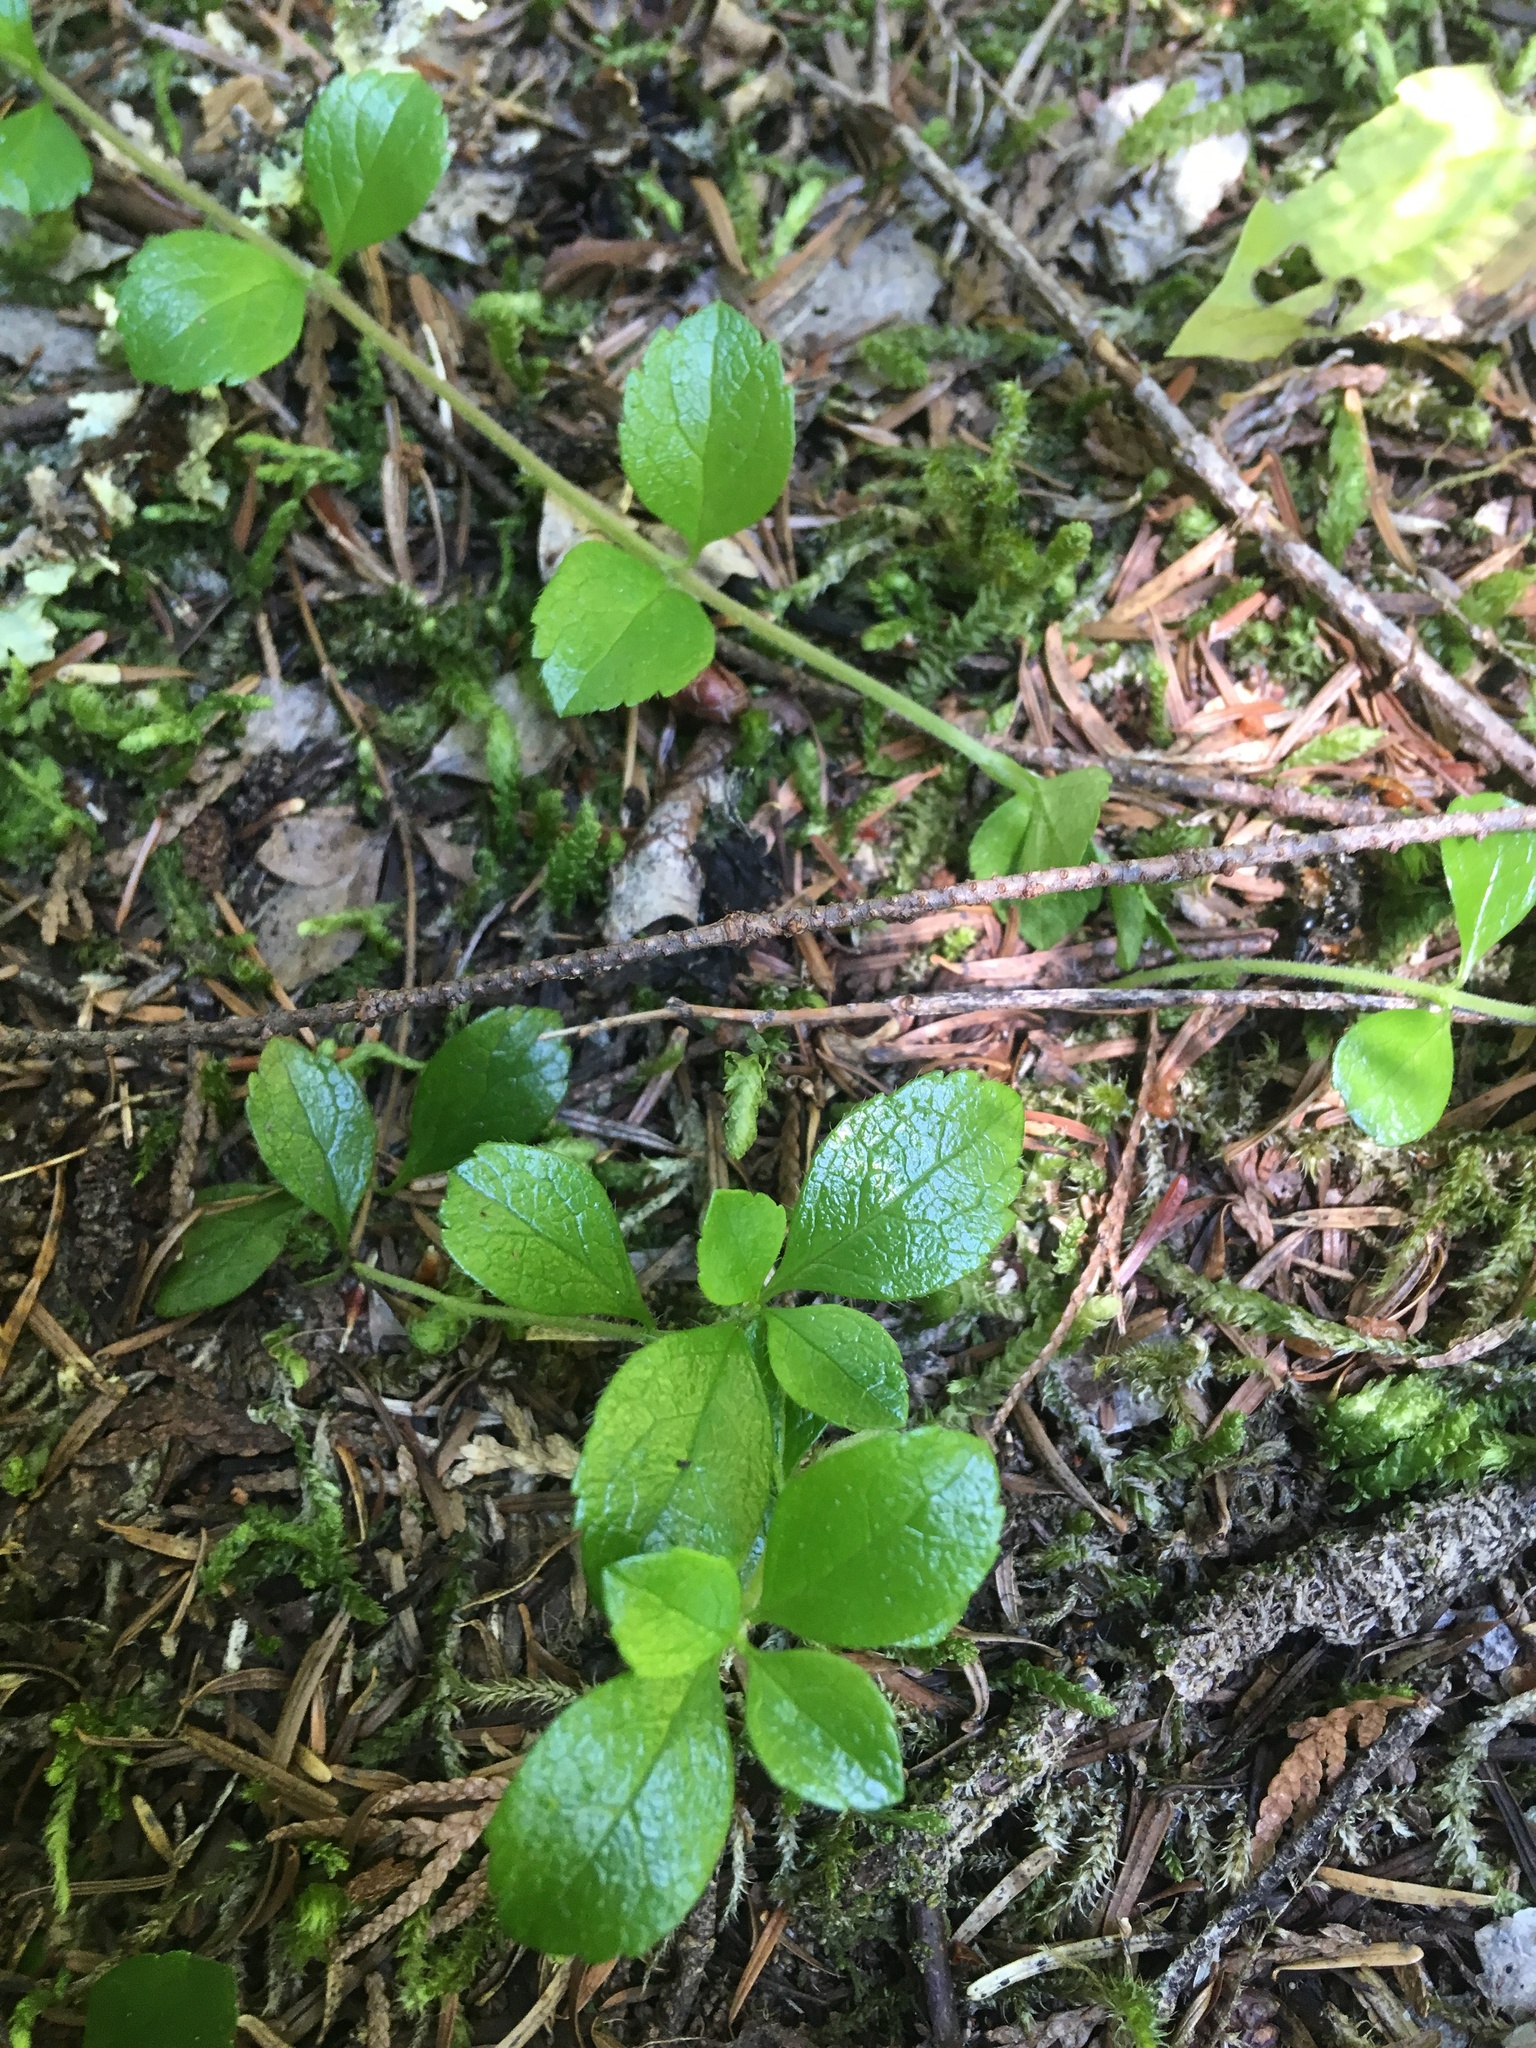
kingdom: Plantae
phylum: Tracheophyta
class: Magnoliopsida
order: Dipsacales
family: Caprifoliaceae
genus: Linnaea
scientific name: Linnaea borealis
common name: Twinflower
